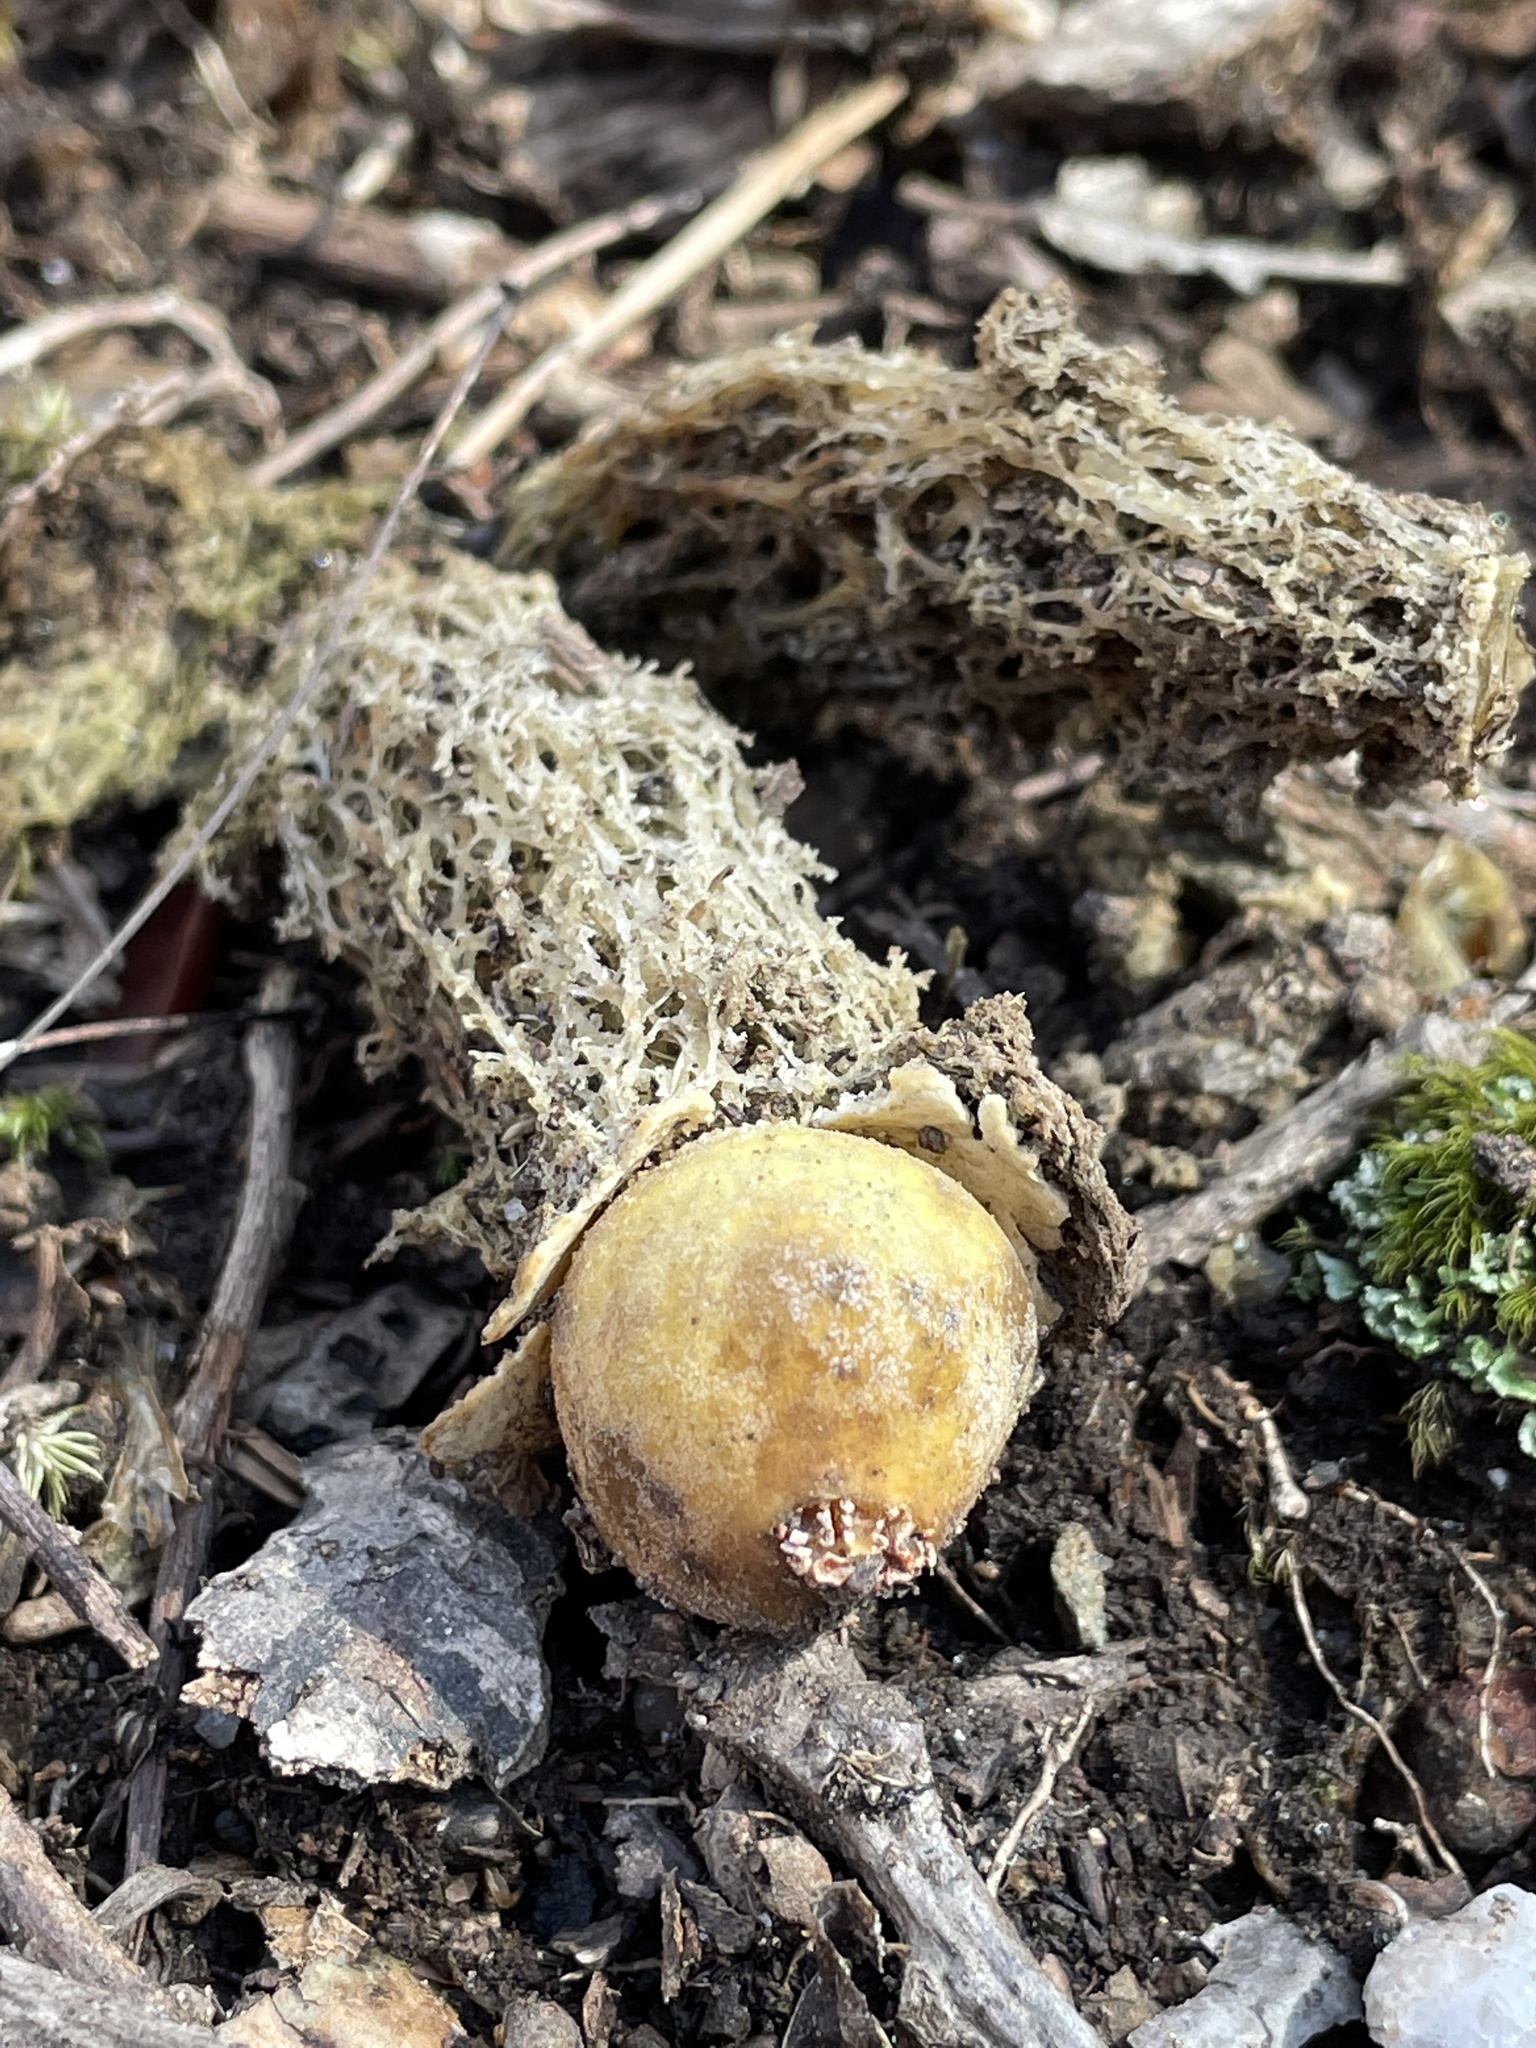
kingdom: Fungi
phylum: Basidiomycota
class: Agaricomycetes
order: Boletales
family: Calostomataceae
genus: Calostoma
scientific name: Calostoma lutescens
